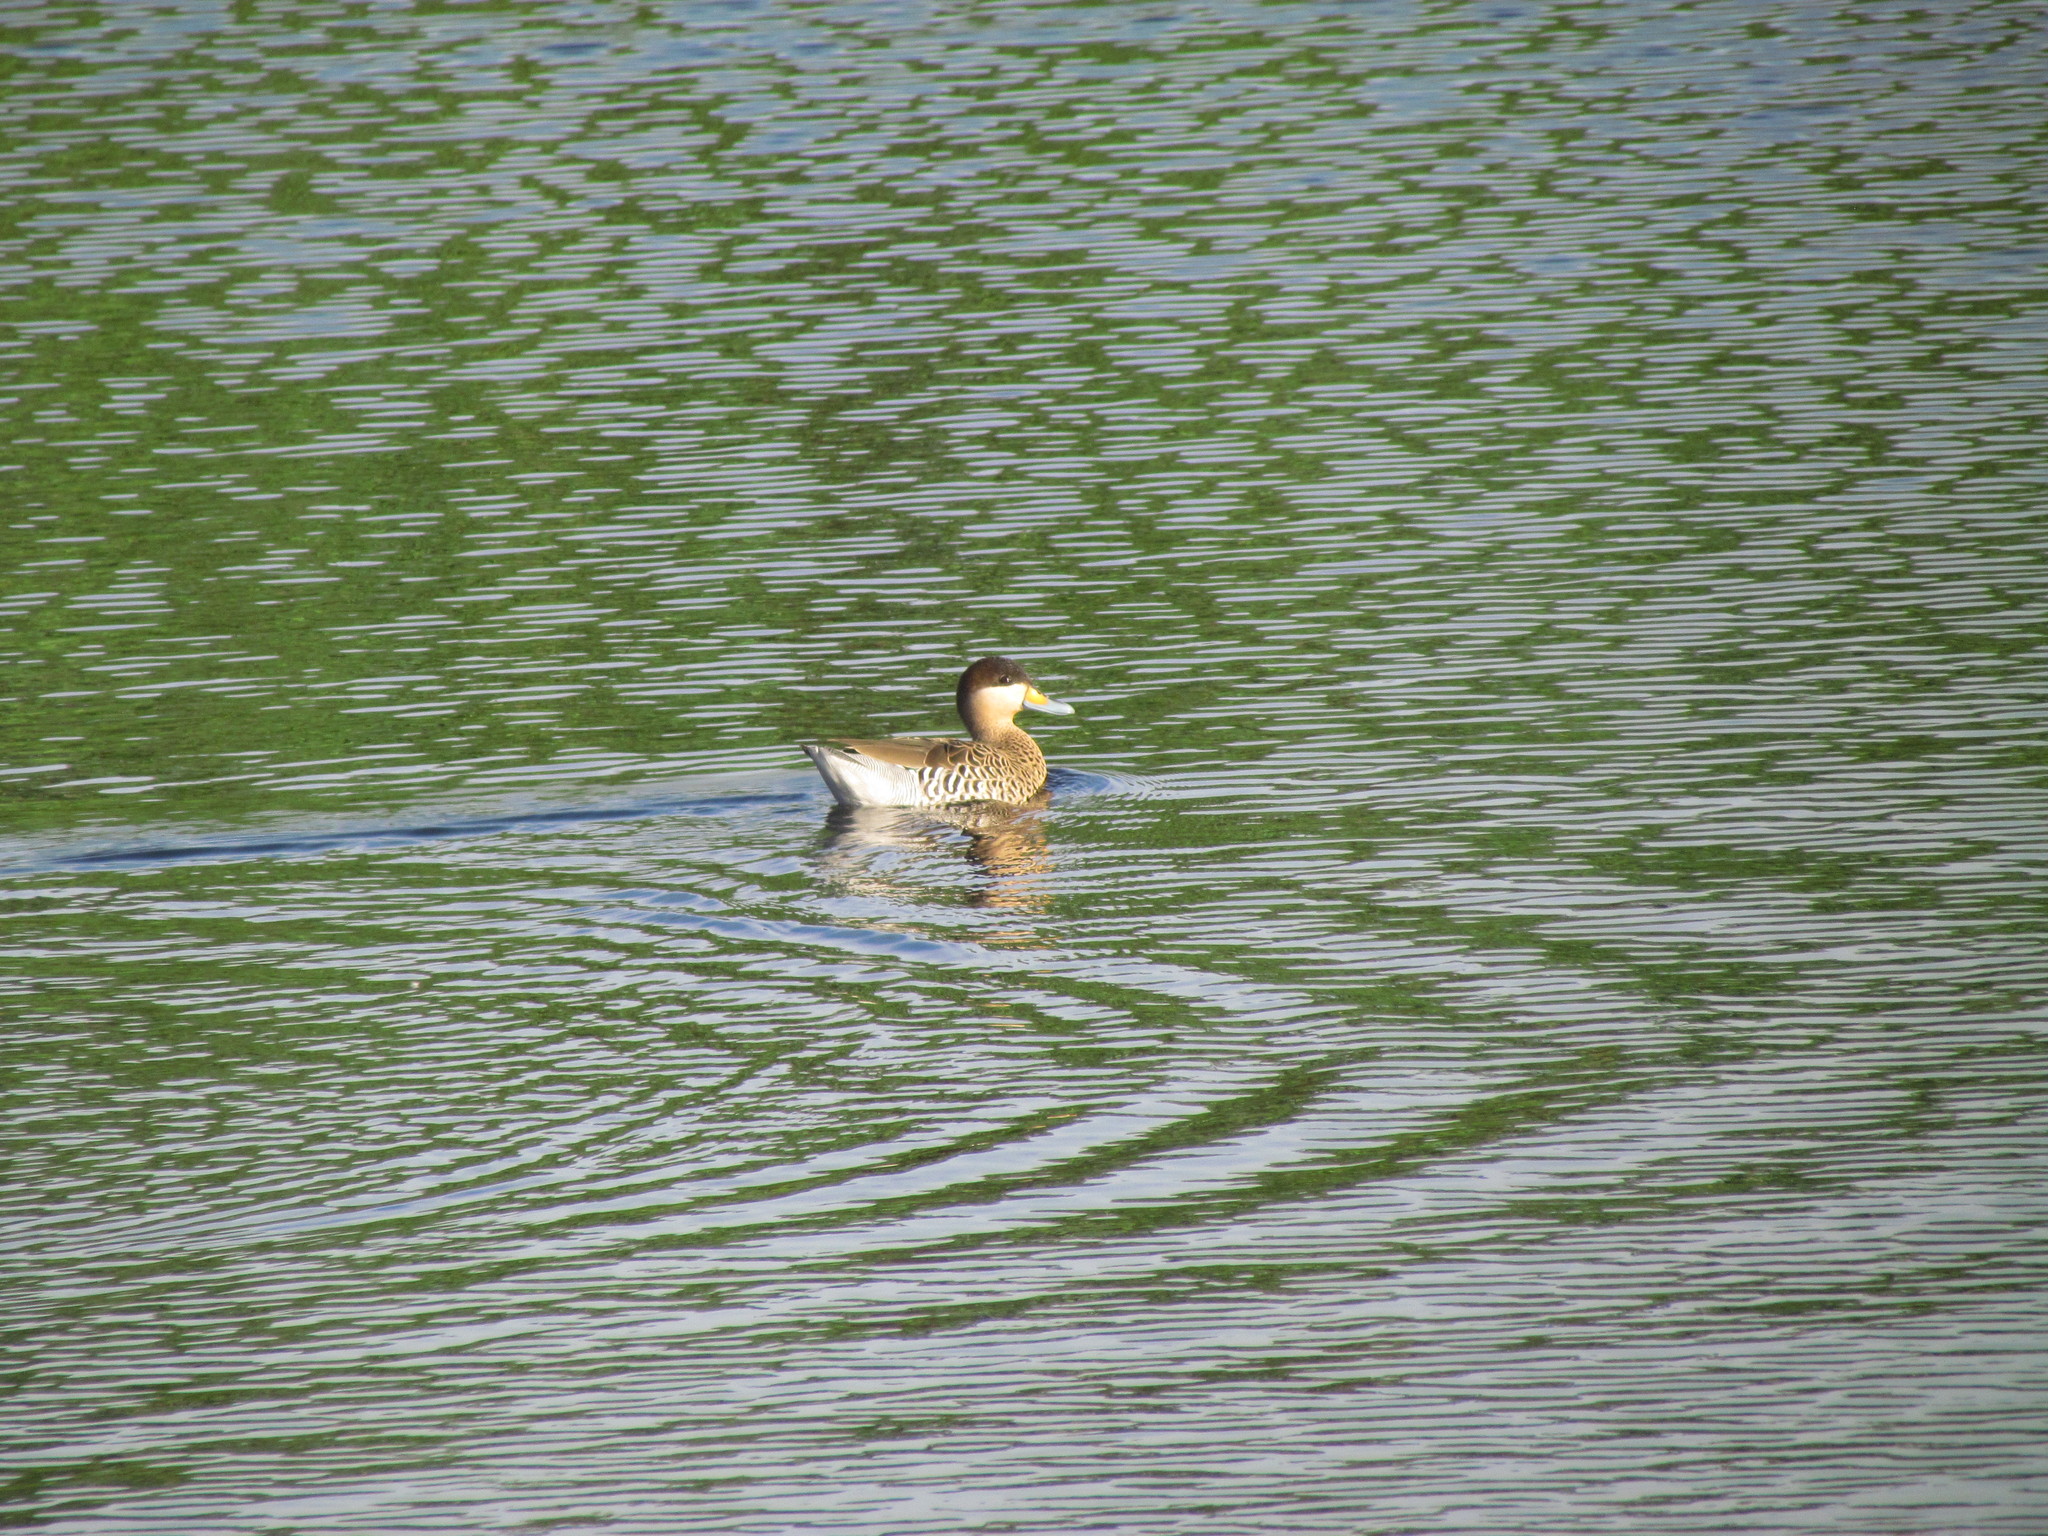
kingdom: Animalia
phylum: Chordata
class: Aves
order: Anseriformes
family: Anatidae
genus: Spatula
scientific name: Spatula versicolor
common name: Silver teal
